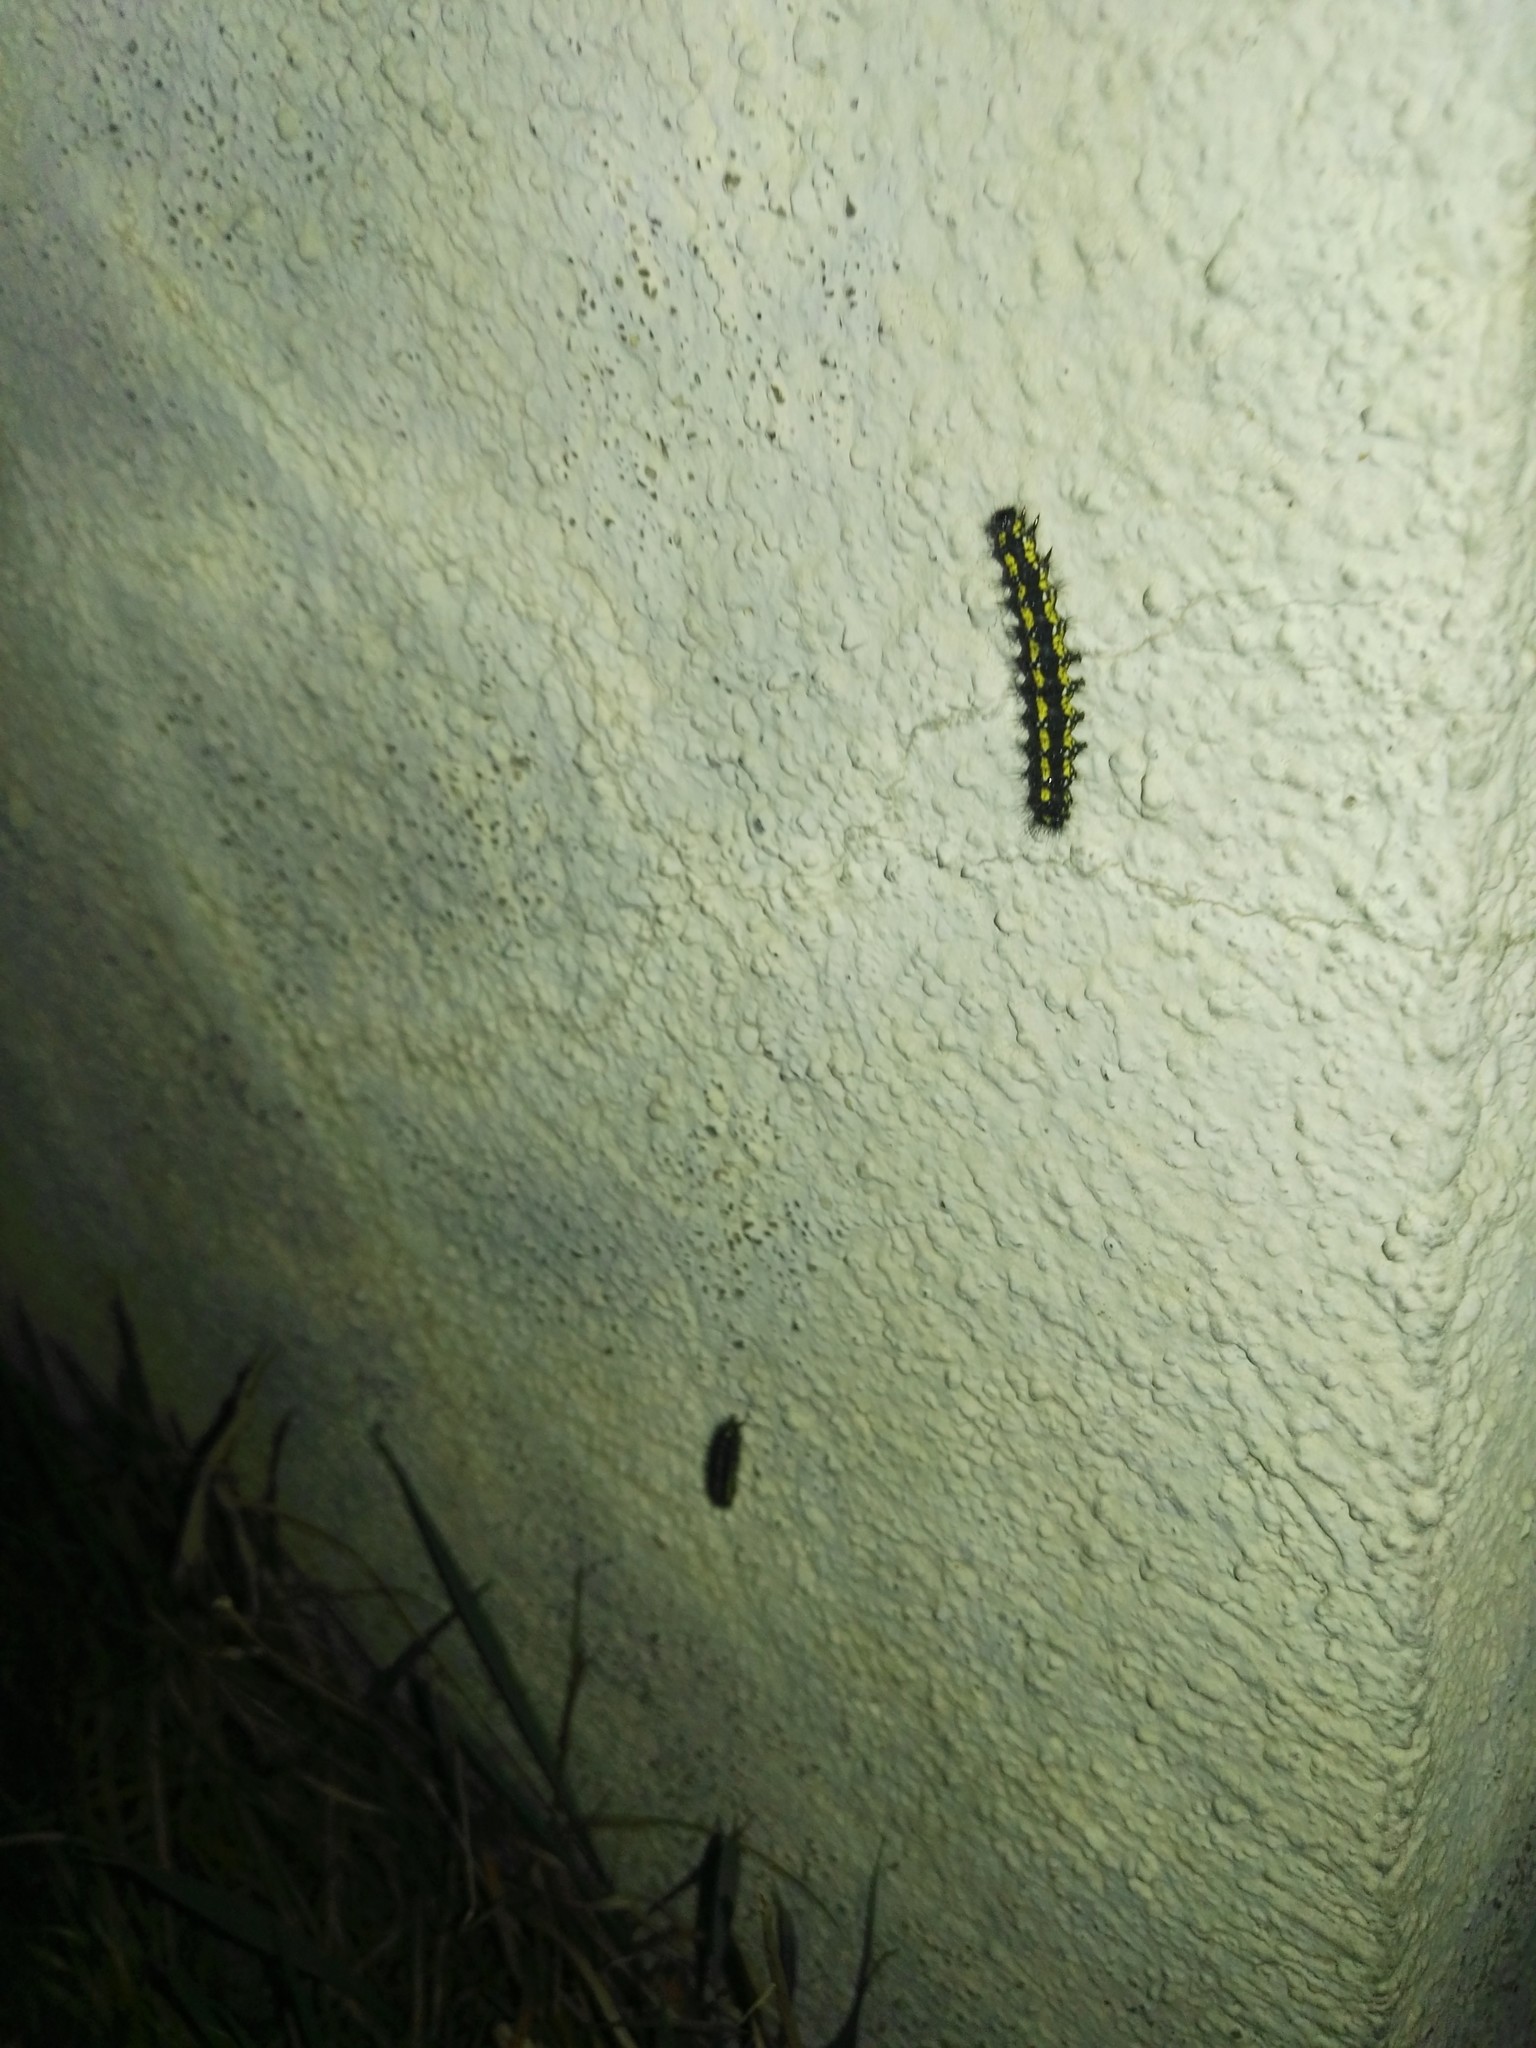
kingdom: Animalia
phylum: Arthropoda
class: Insecta
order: Lepidoptera
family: Erebidae
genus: Callimorpha
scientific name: Callimorpha dominula
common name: Scarlet tiger
